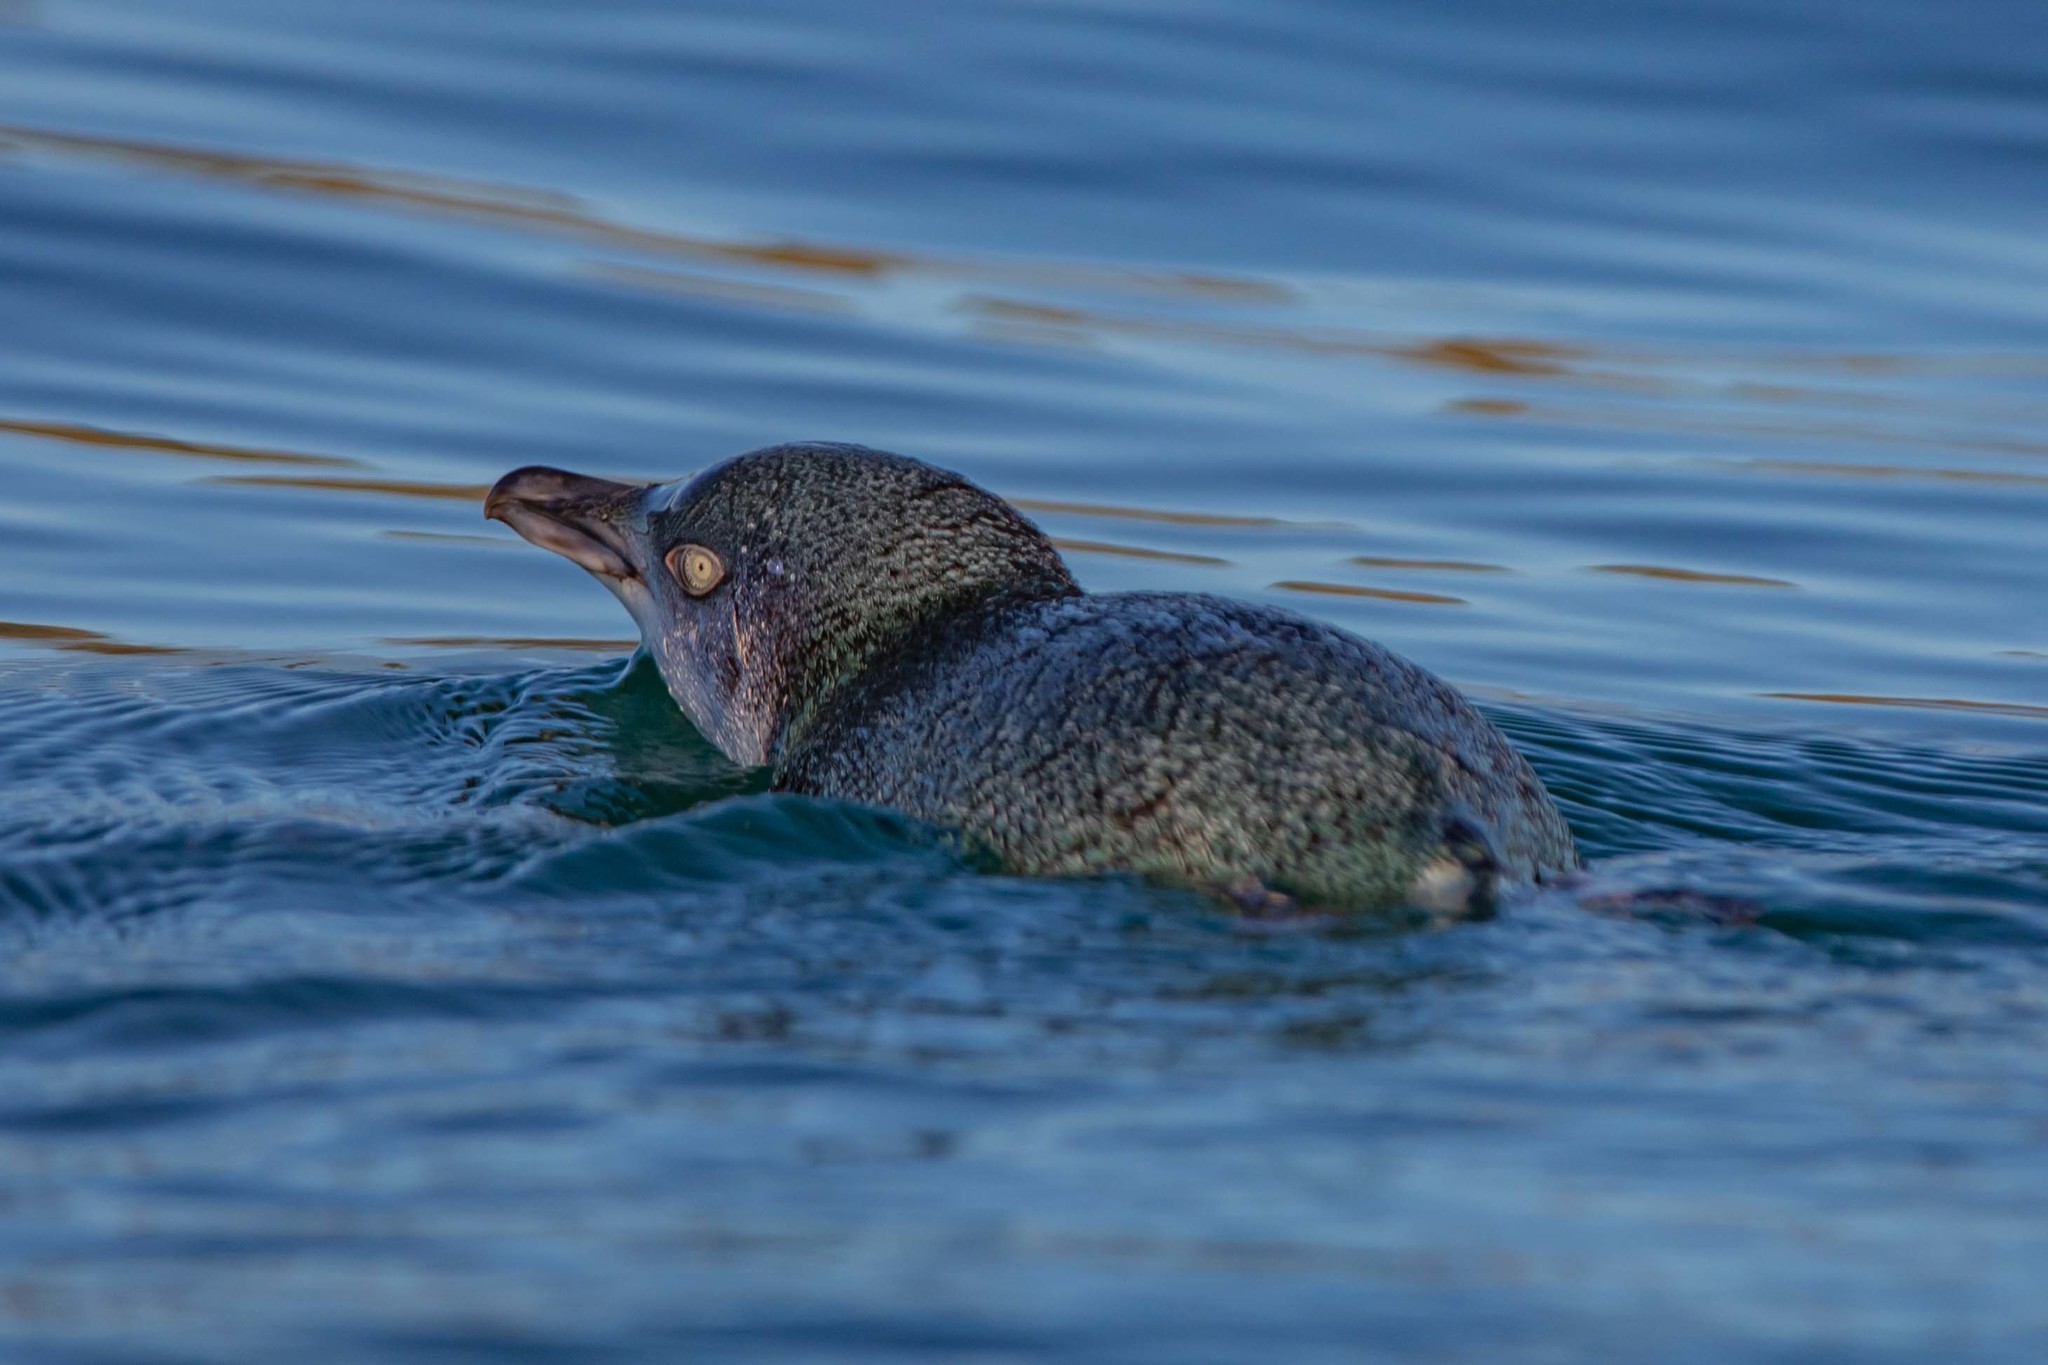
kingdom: Animalia
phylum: Chordata
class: Aves
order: Sphenisciformes
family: Spheniscidae
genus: Eudyptula
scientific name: Eudyptula minor
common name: Little penguin
